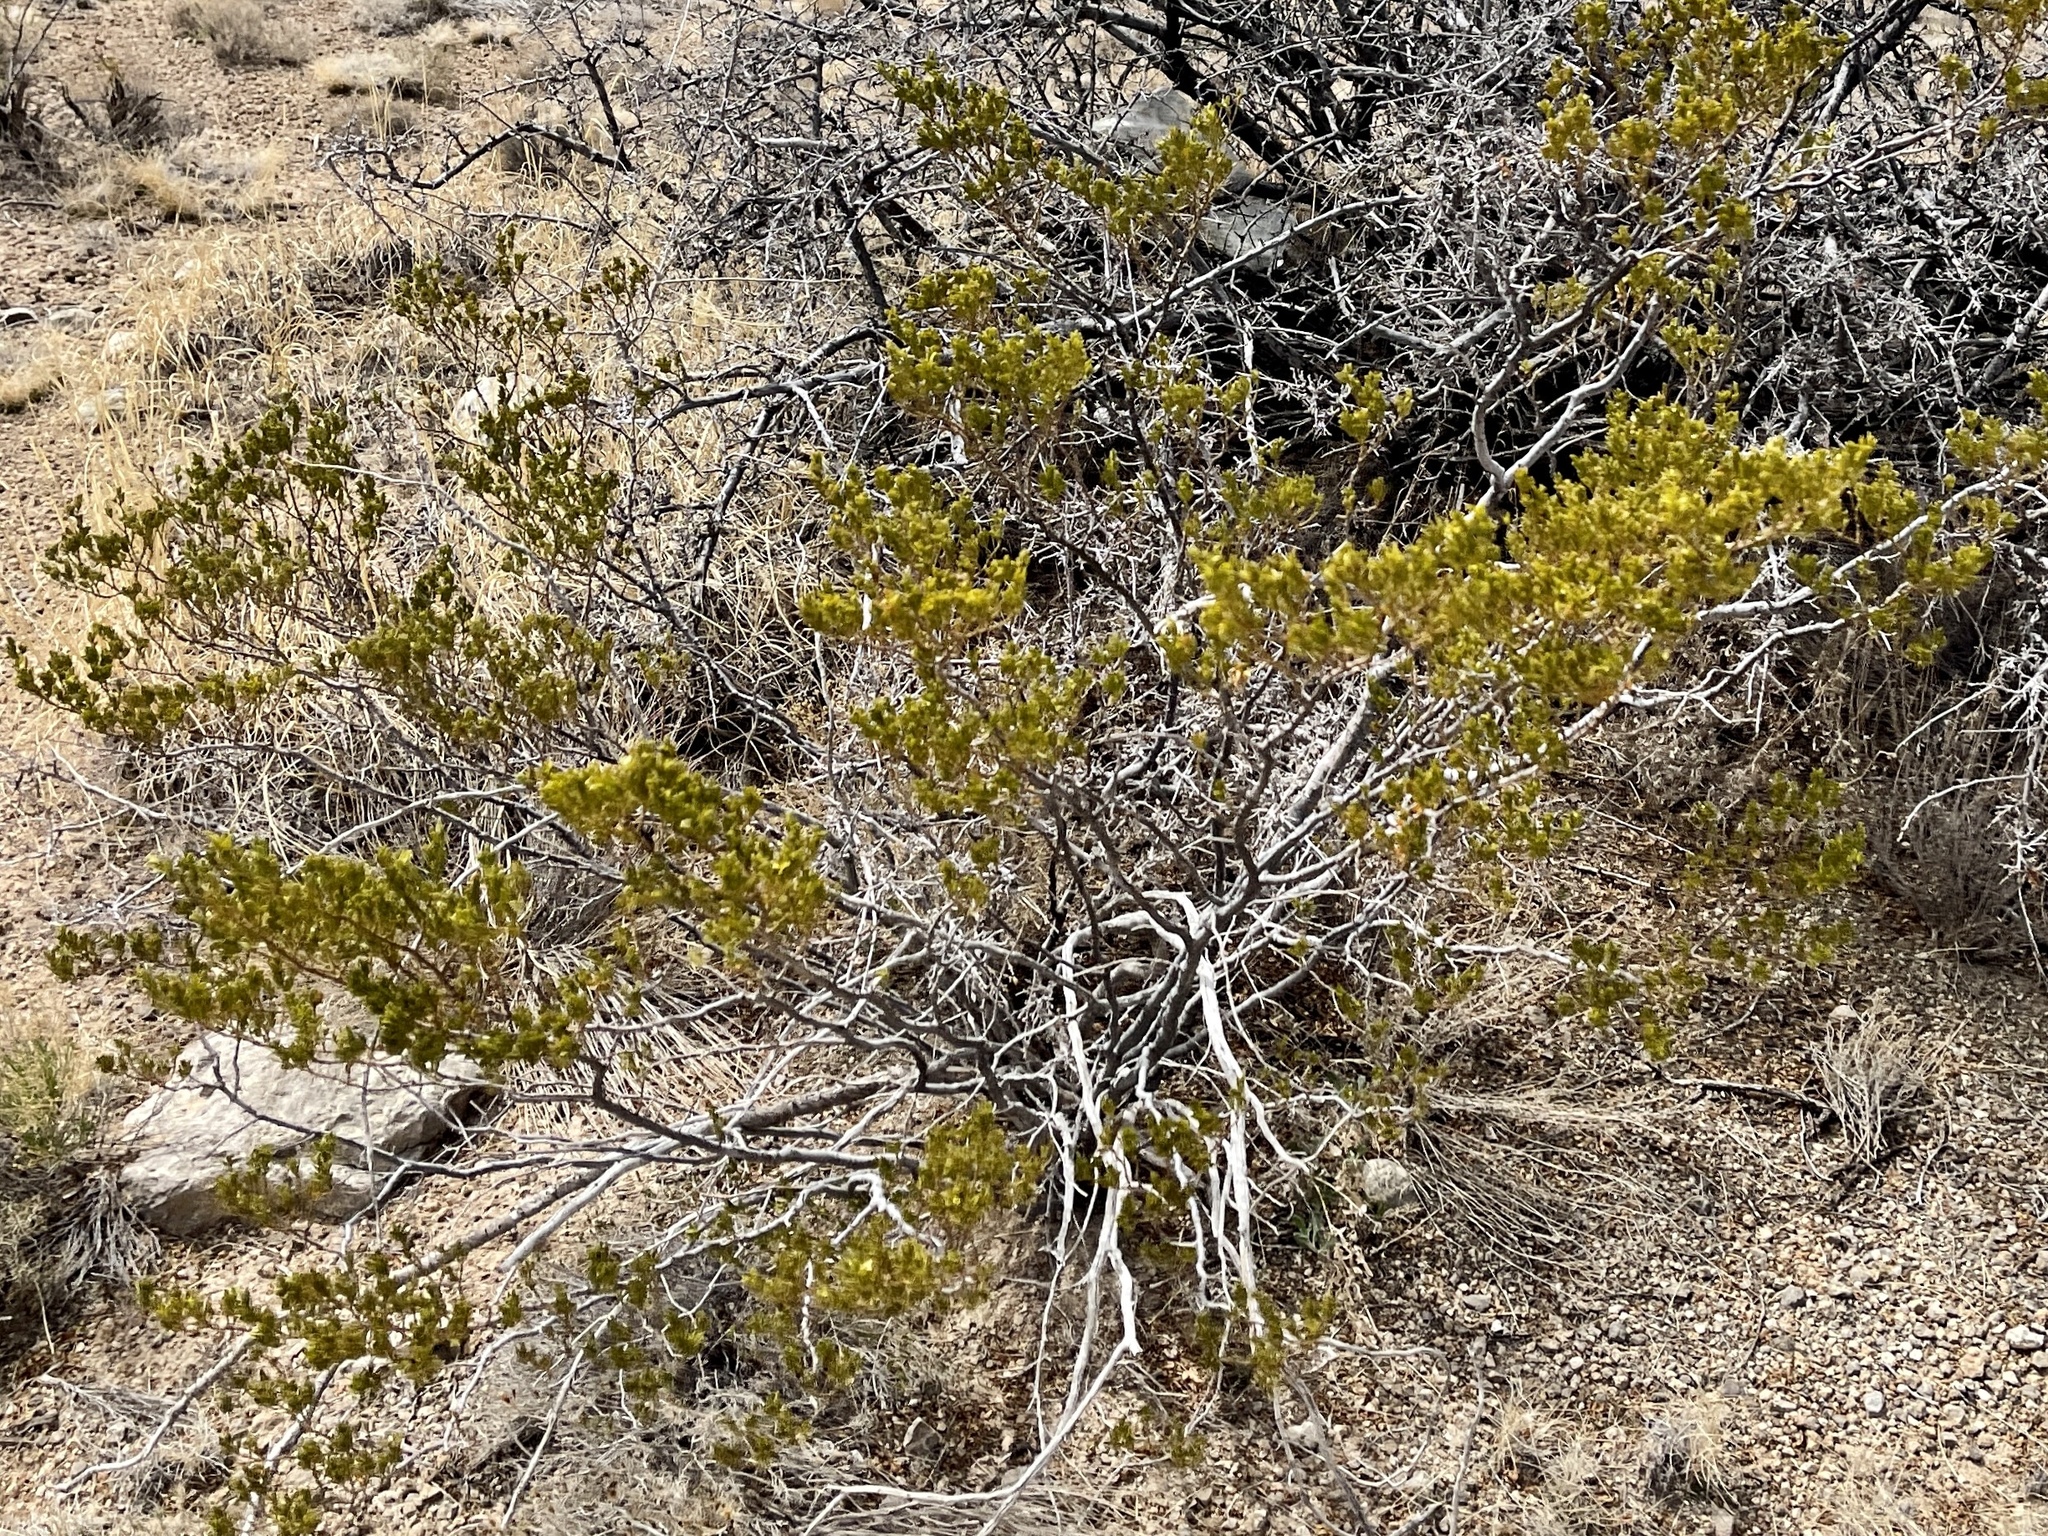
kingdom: Plantae
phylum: Tracheophyta
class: Magnoliopsida
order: Zygophyllales
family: Zygophyllaceae
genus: Larrea
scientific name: Larrea tridentata
